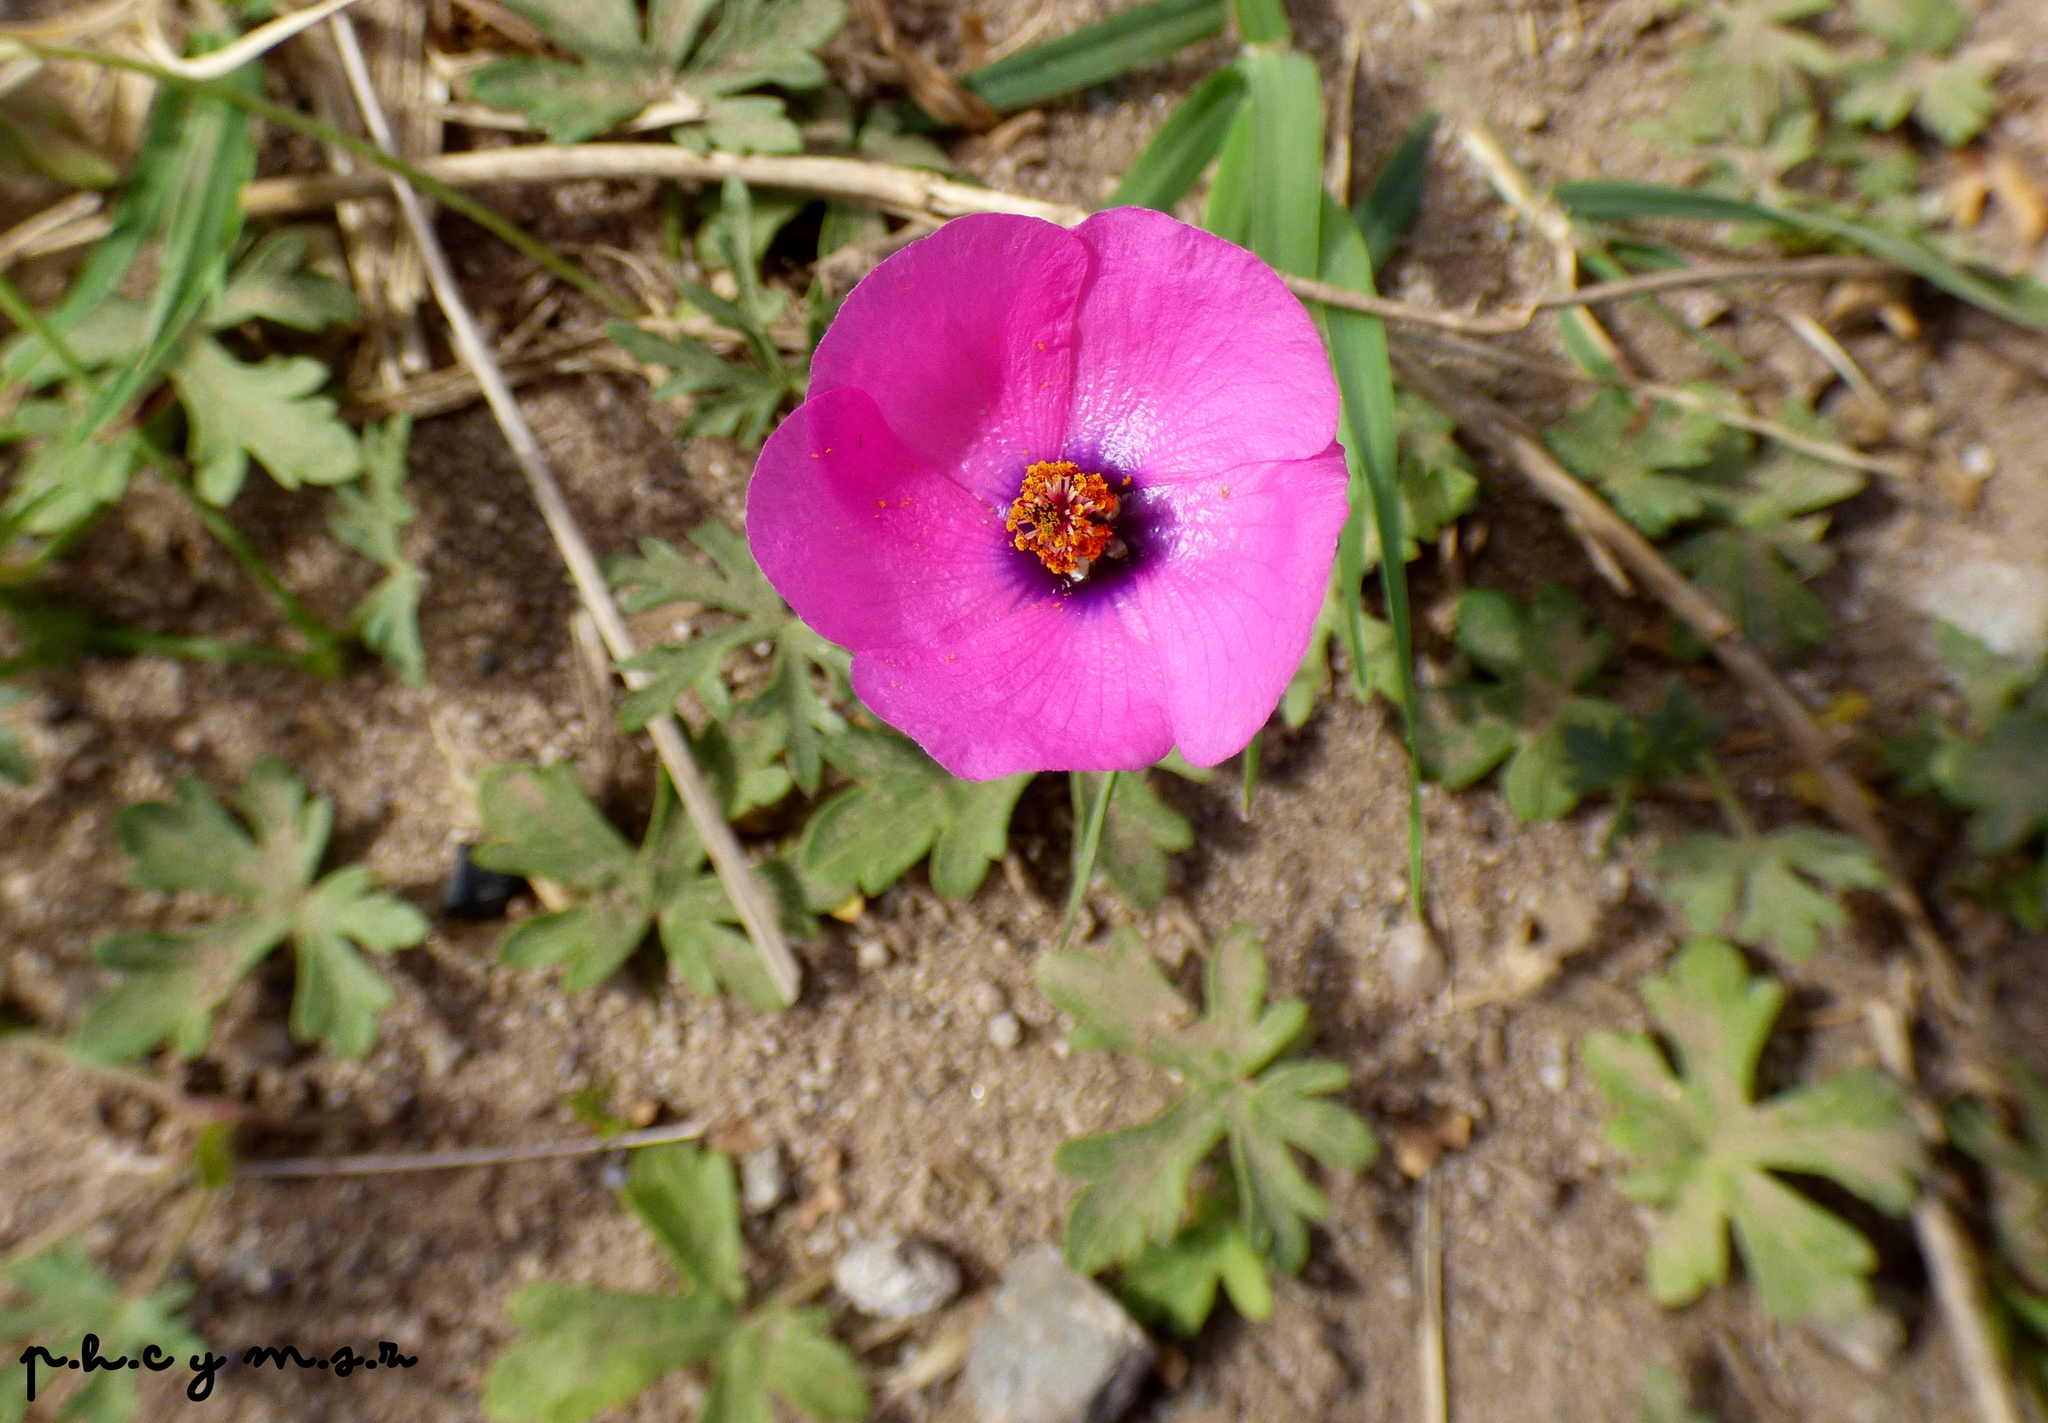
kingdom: Plantae
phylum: Tracheophyta
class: Magnoliopsida
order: Malvales
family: Malvaceae
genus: Modiolastrum
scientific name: Modiolastrum gilliesii
